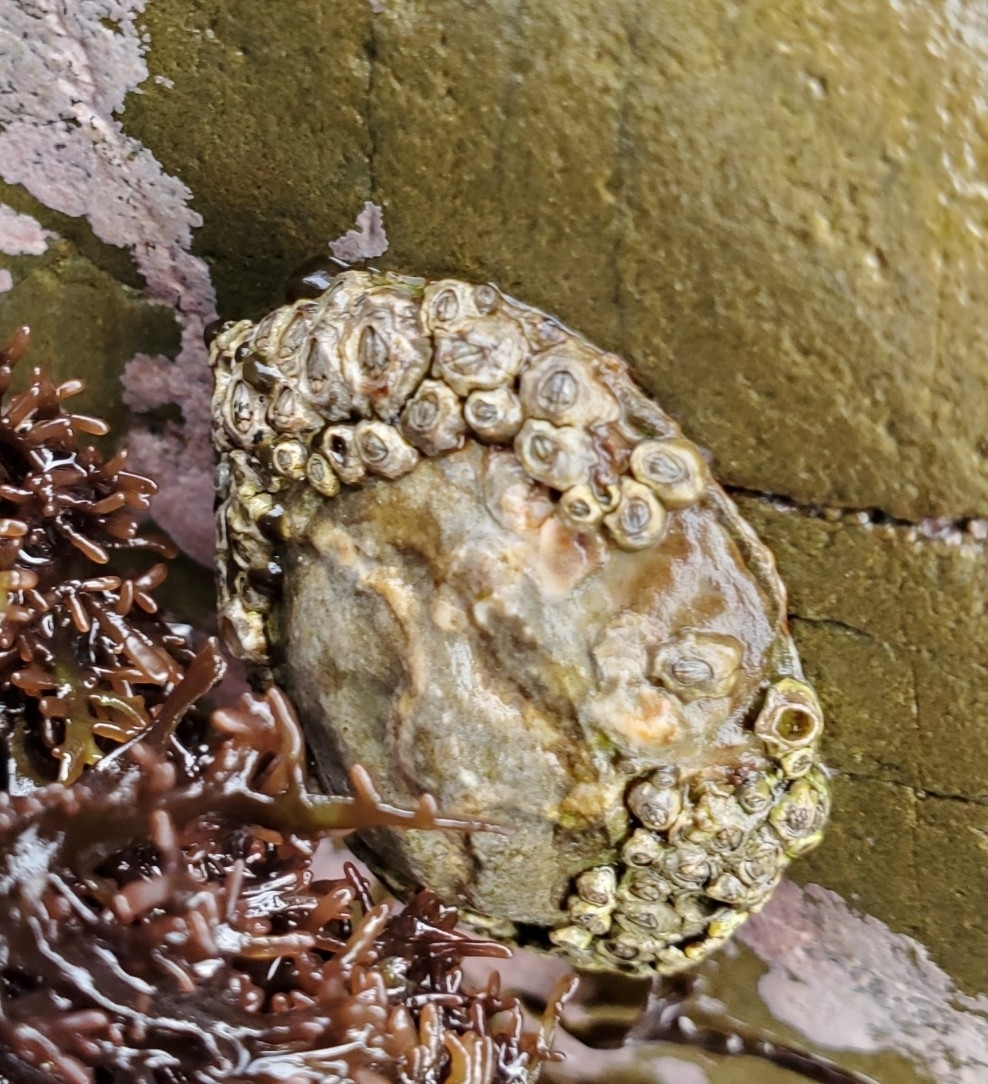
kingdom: Animalia
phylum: Mollusca
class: Gastropoda
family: Nacellidae
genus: Cellana
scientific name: Cellana denticulata
